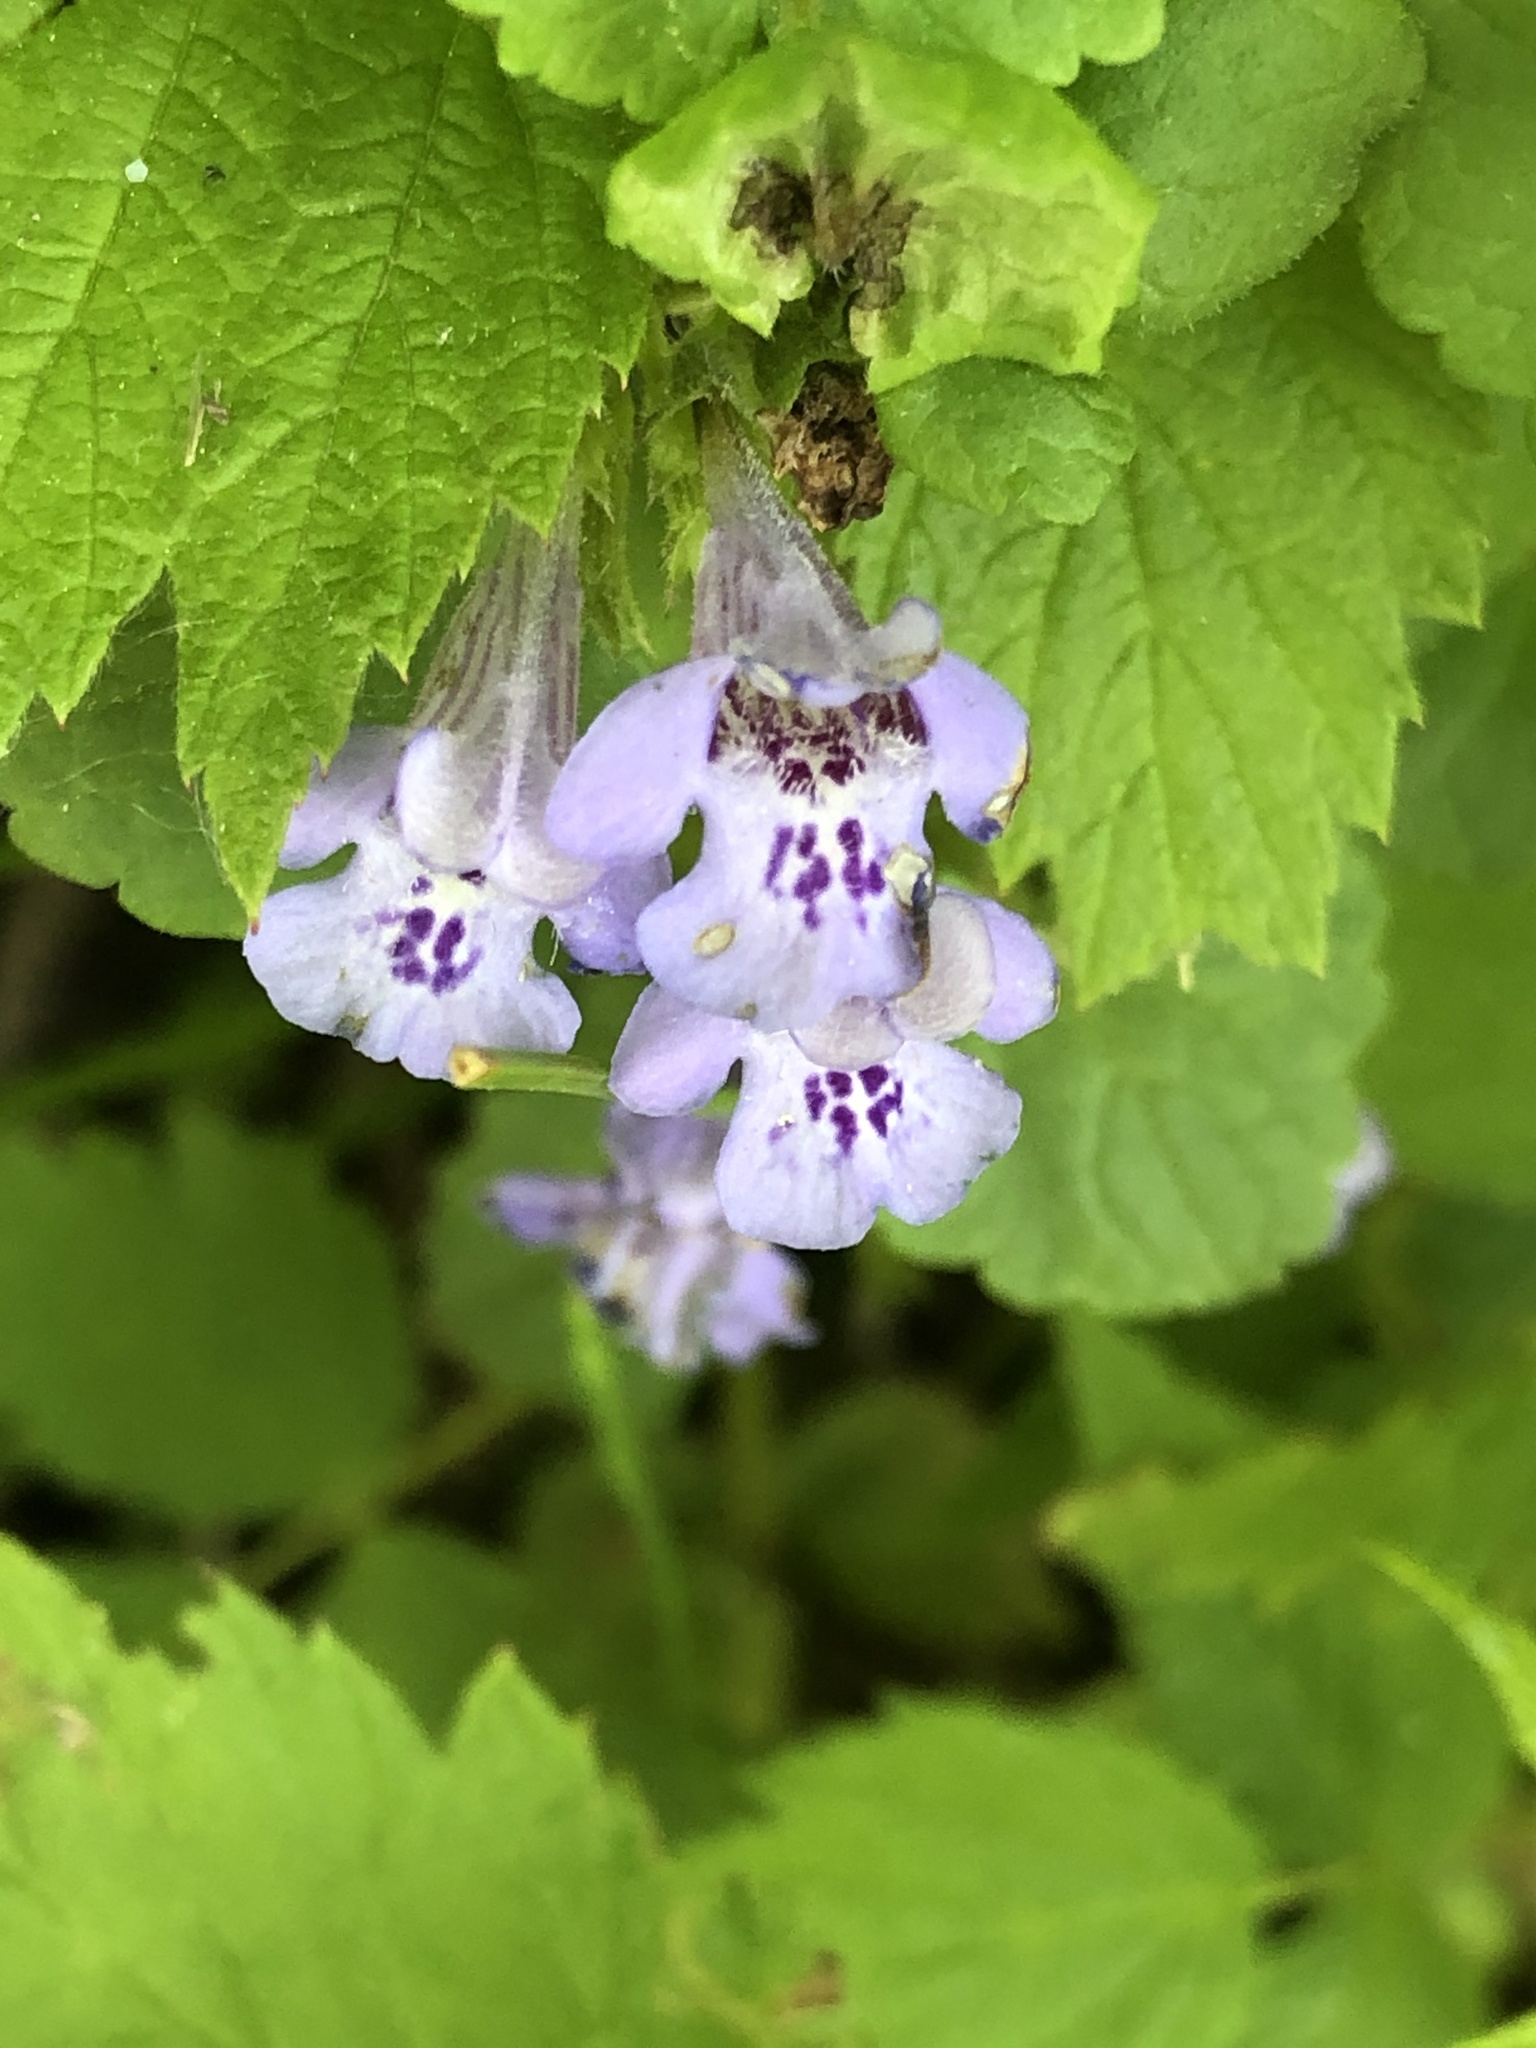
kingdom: Plantae
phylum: Tracheophyta
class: Magnoliopsida
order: Lamiales
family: Lamiaceae
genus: Glechoma
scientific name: Glechoma hederacea
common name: Ground ivy
